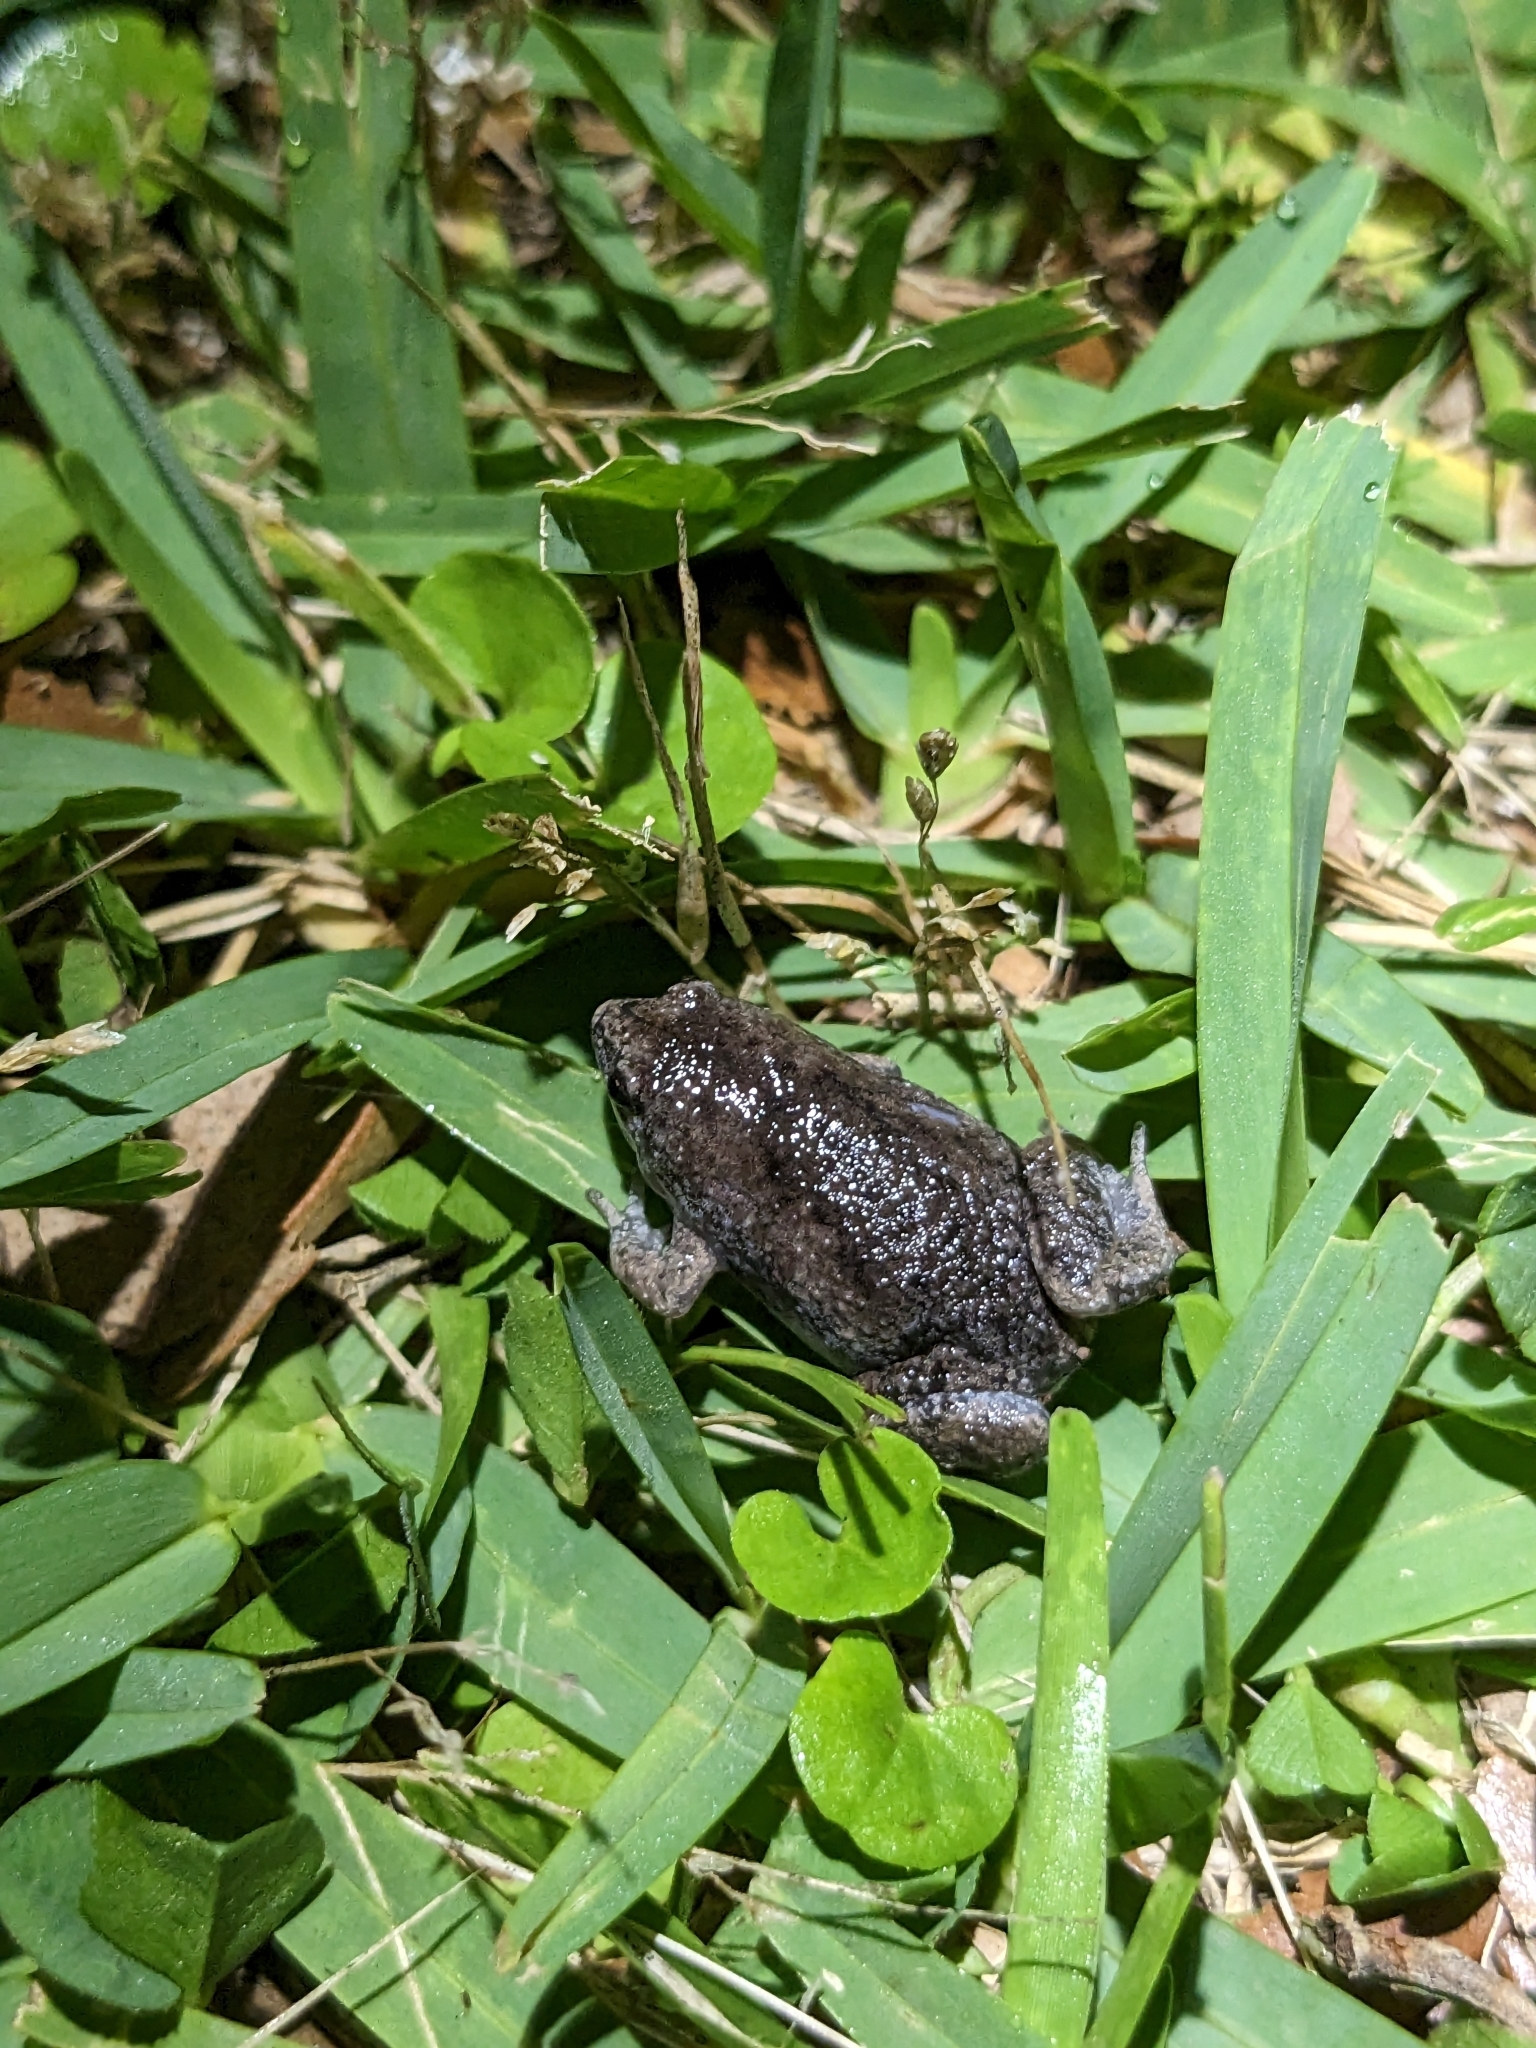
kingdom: Animalia
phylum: Chordata
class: Amphibia
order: Anura
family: Microhylidae
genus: Gastrophryne
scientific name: Gastrophryne carolinensis
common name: Eastern narrowmouth toad
